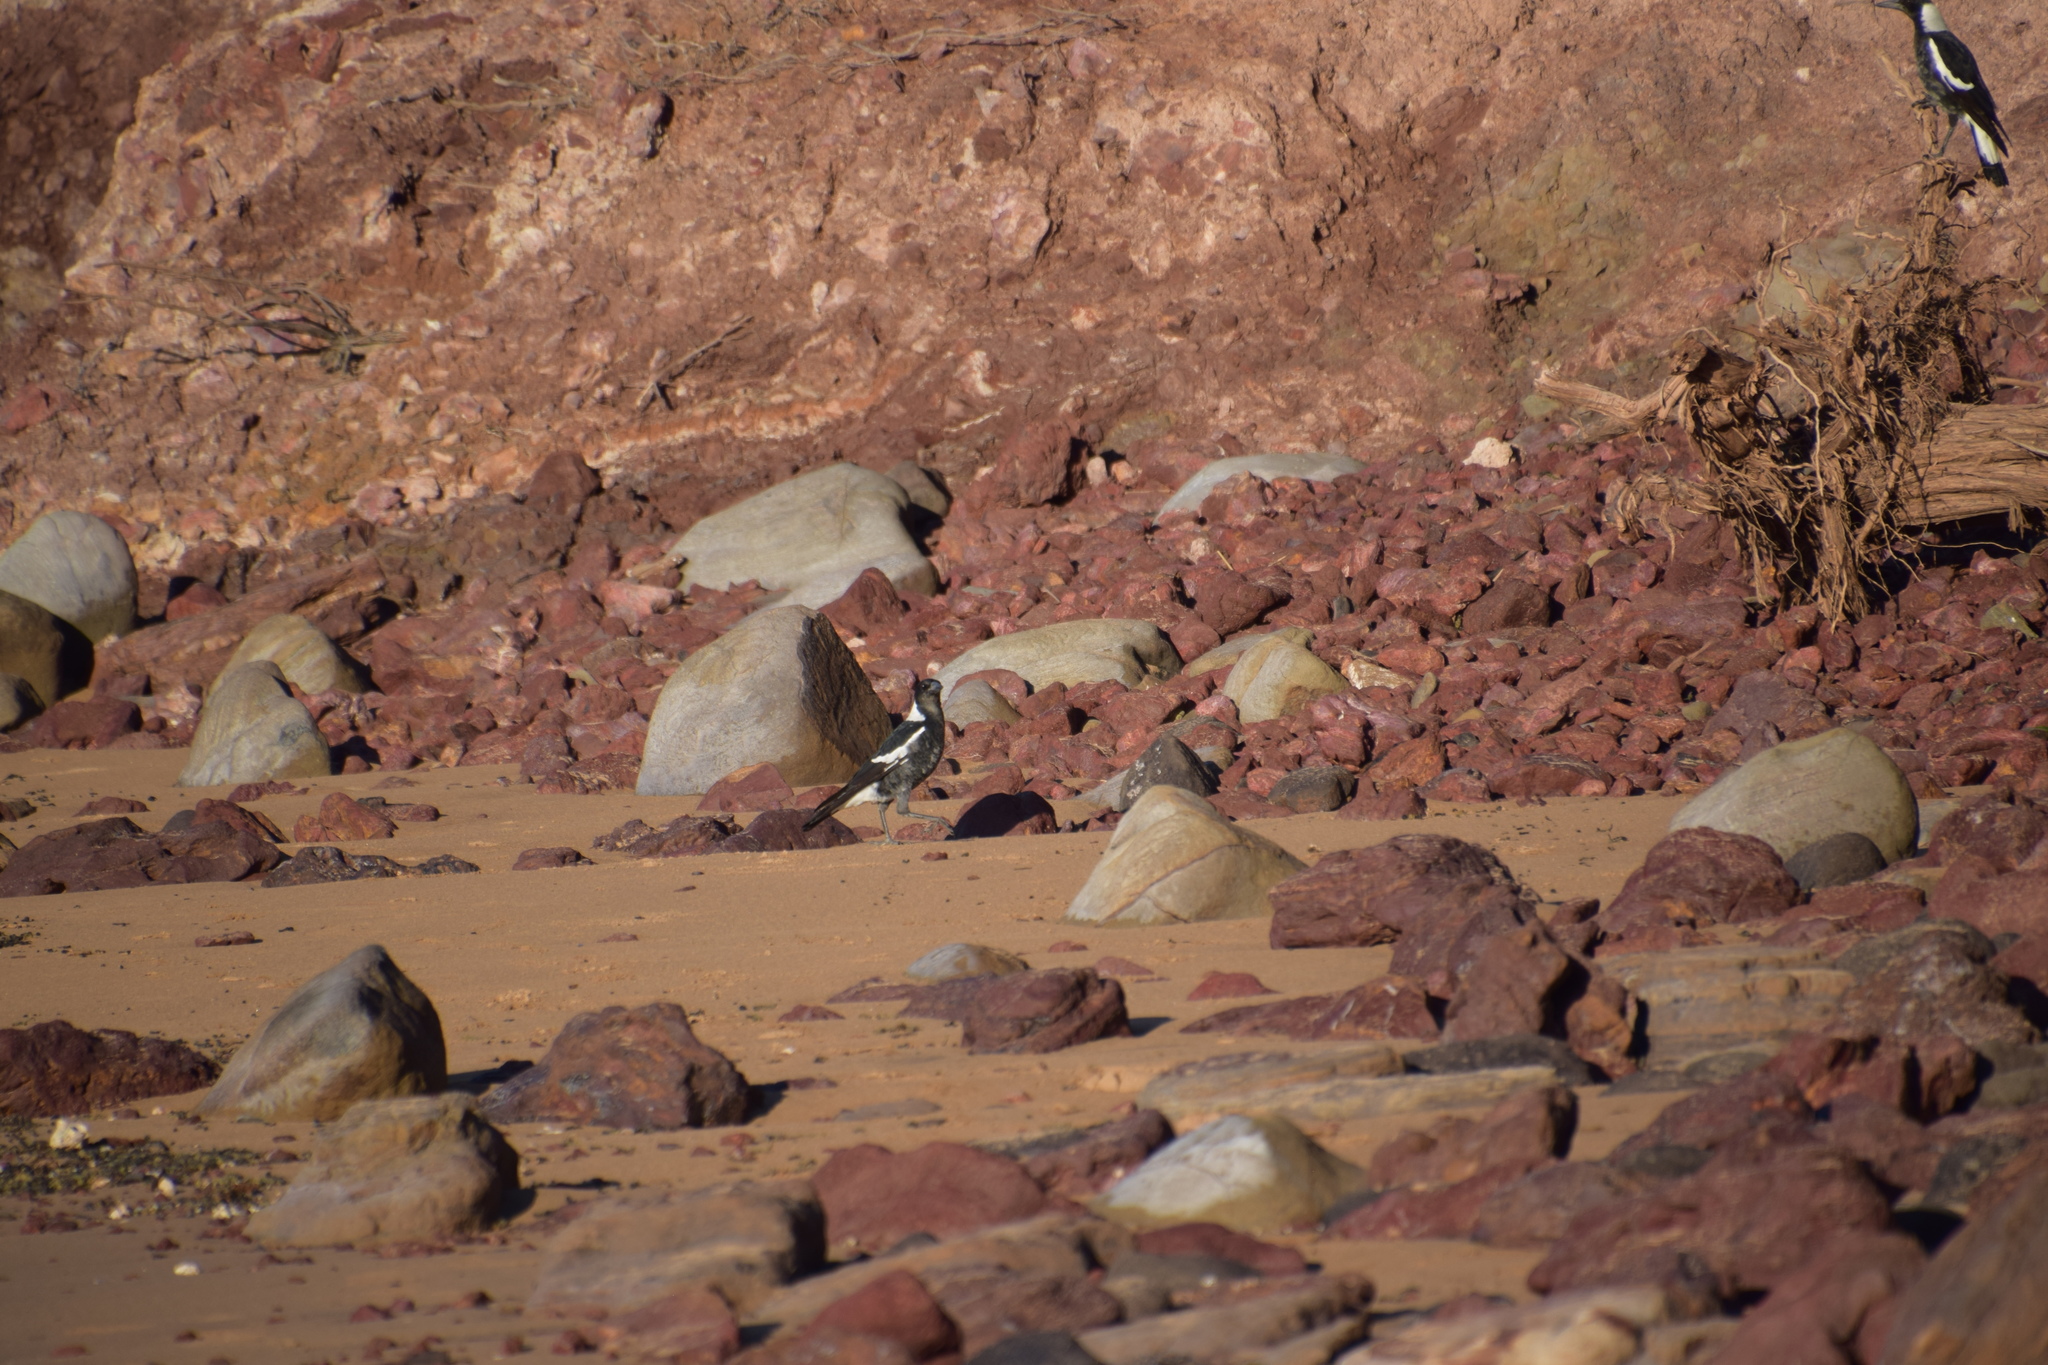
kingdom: Animalia
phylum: Chordata
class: Aves
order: Passeriformes
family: Cracticidae
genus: Gymnorhina
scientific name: Gymnorhina tibicen
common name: Australian magpie
